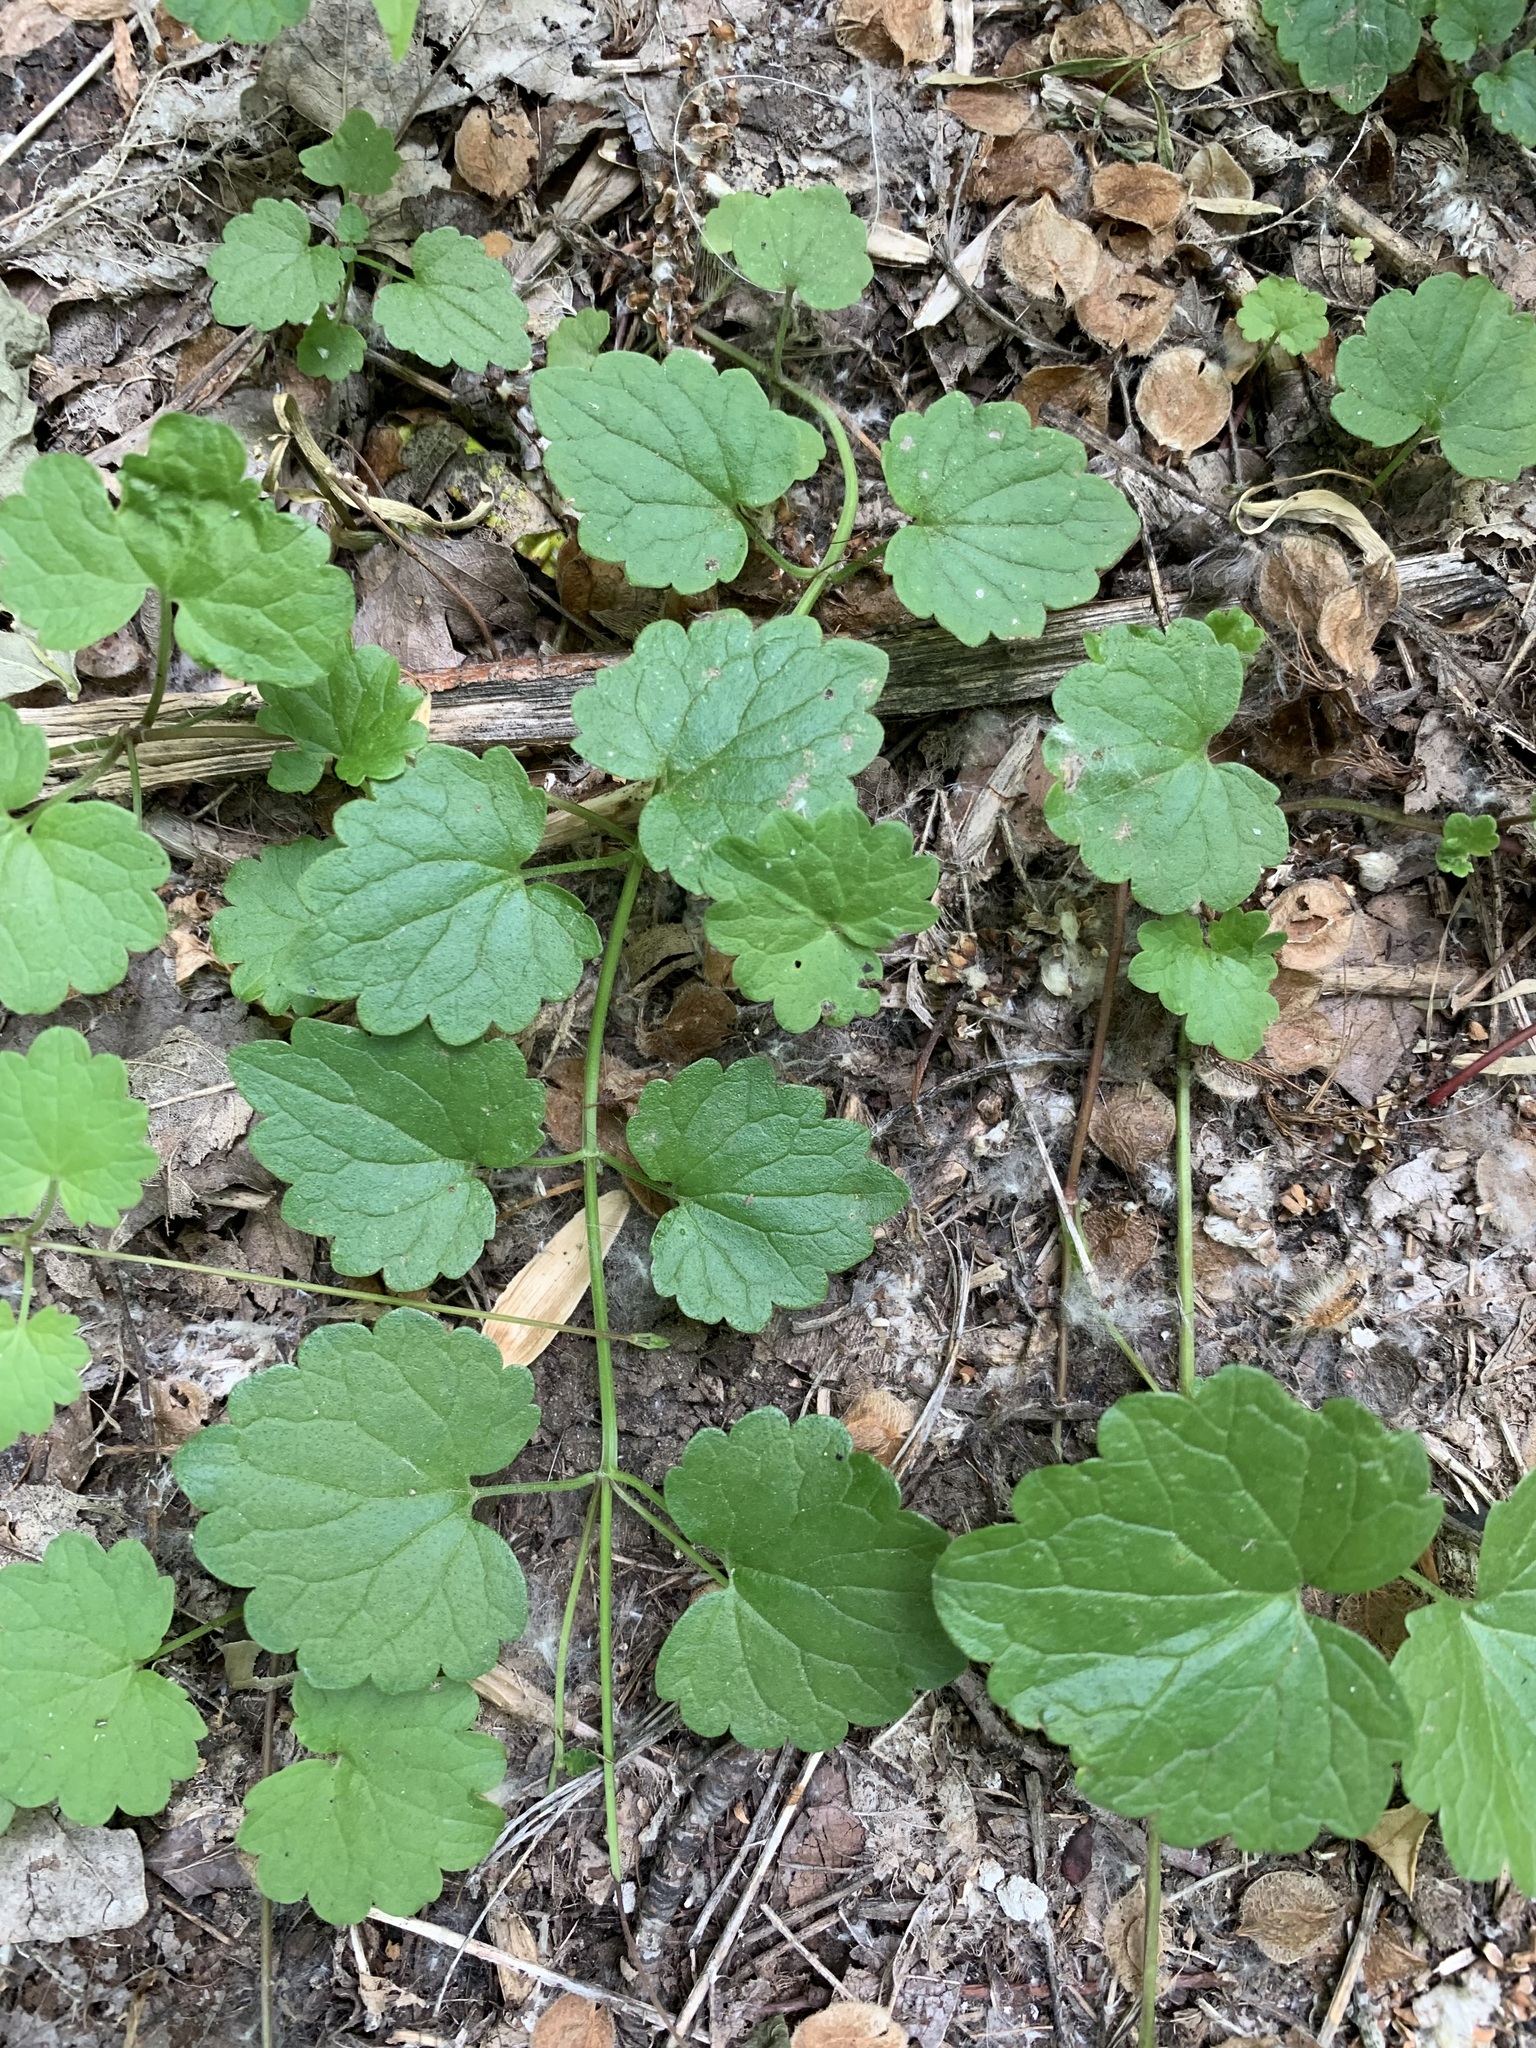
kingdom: Plantae
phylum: Tracheophyta
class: Magnoliopsida
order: Lamiales
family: Lamiaceae
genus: Glechoma
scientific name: Glechoma hederacea
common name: Ground ivy
